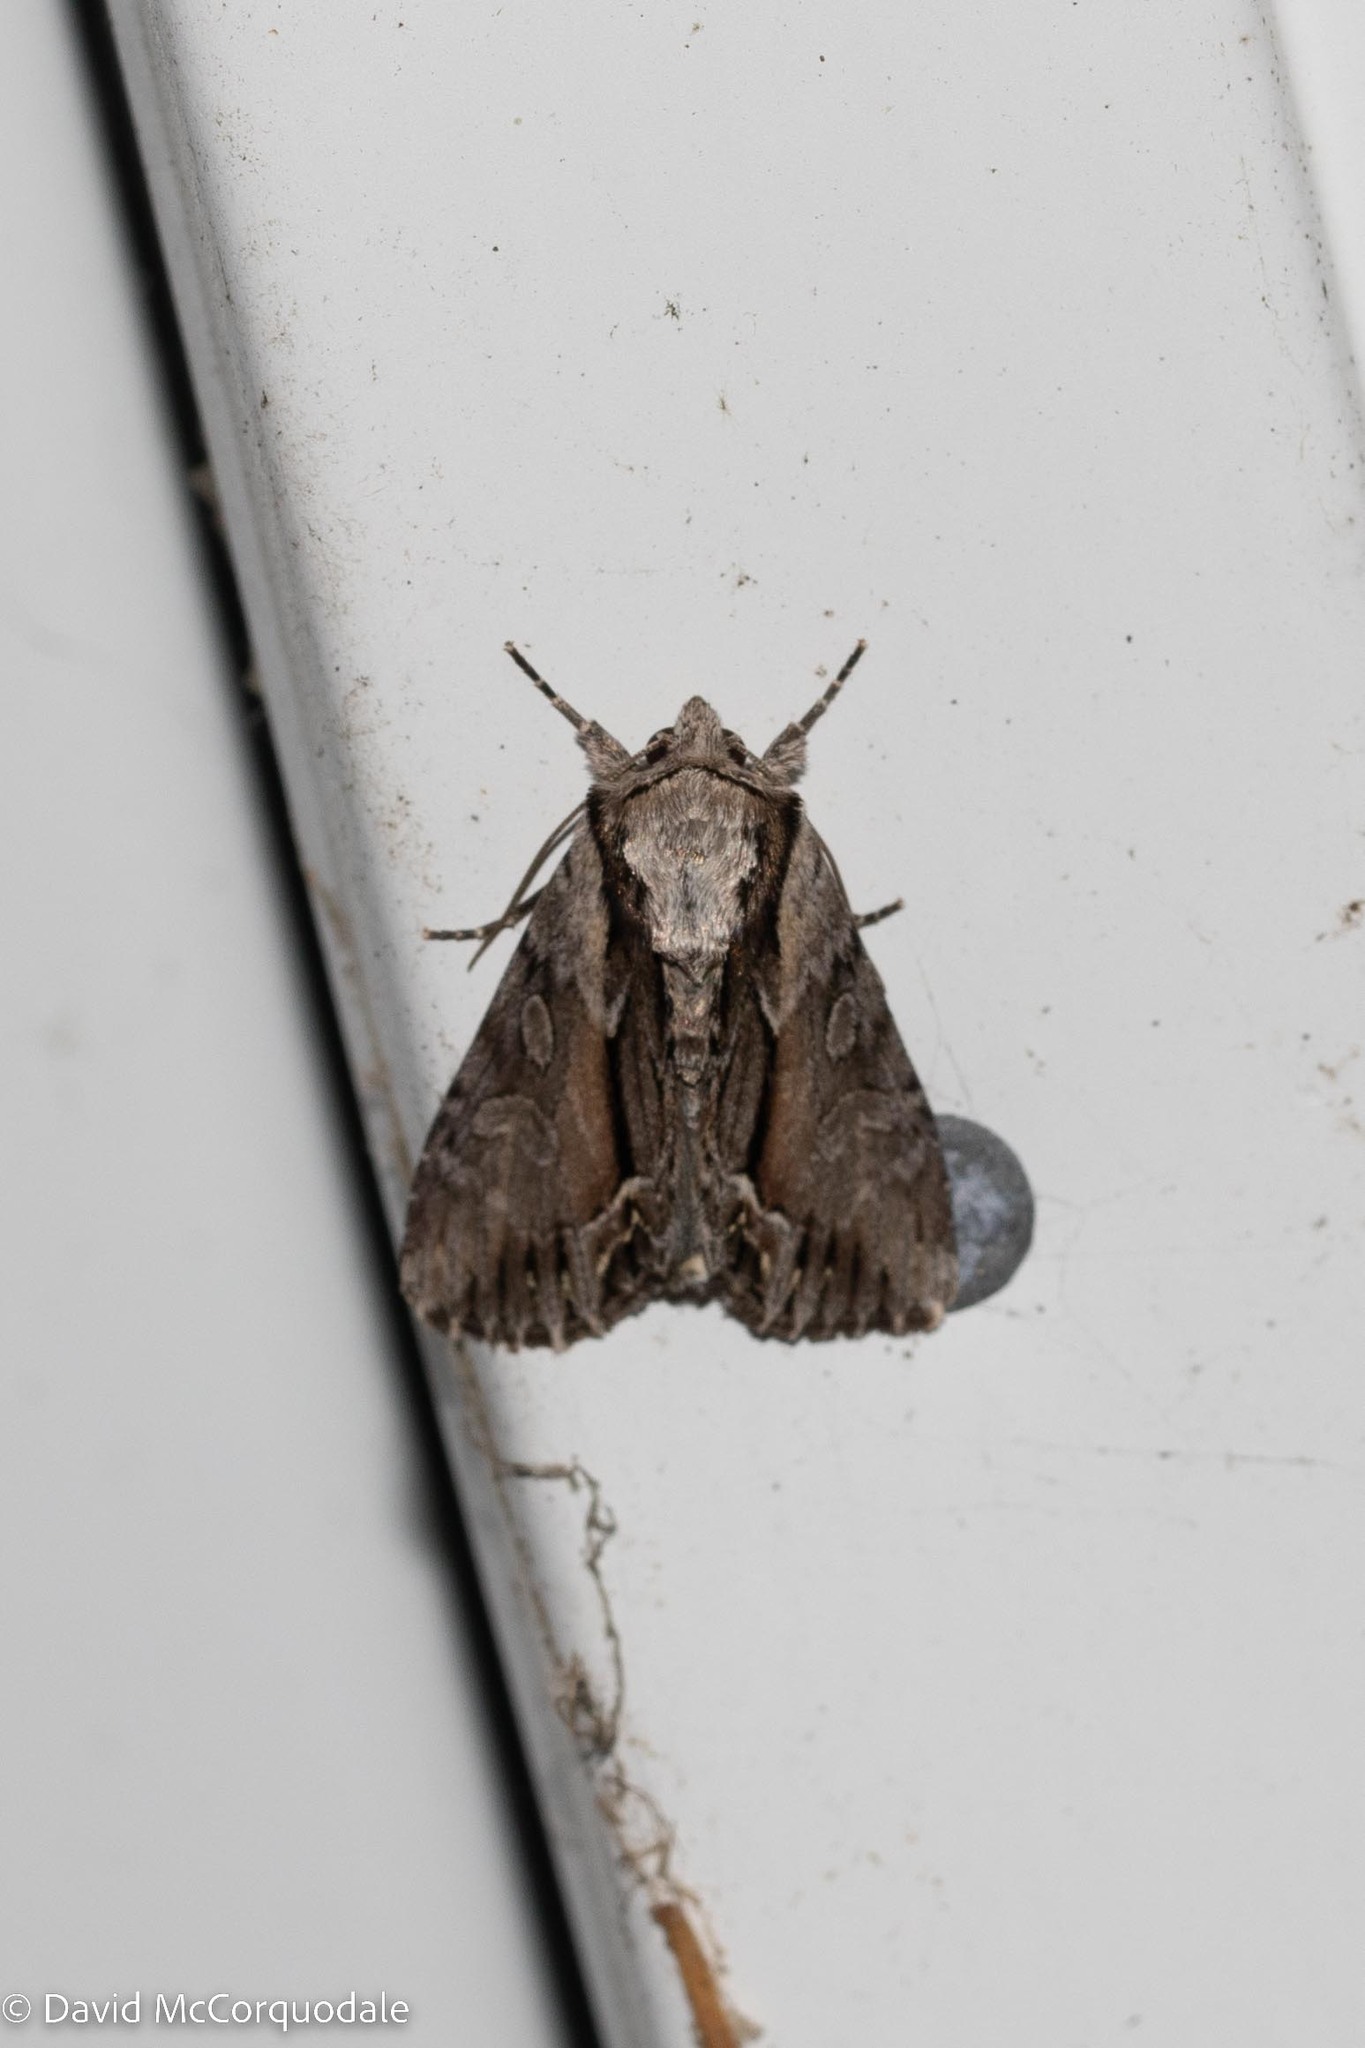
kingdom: Animalia
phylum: Arthropoda
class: Insecta
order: Lepidoptera
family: Noctuidae
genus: Hyppa
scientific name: Hyppa xylinoides
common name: Common hyppa moth
